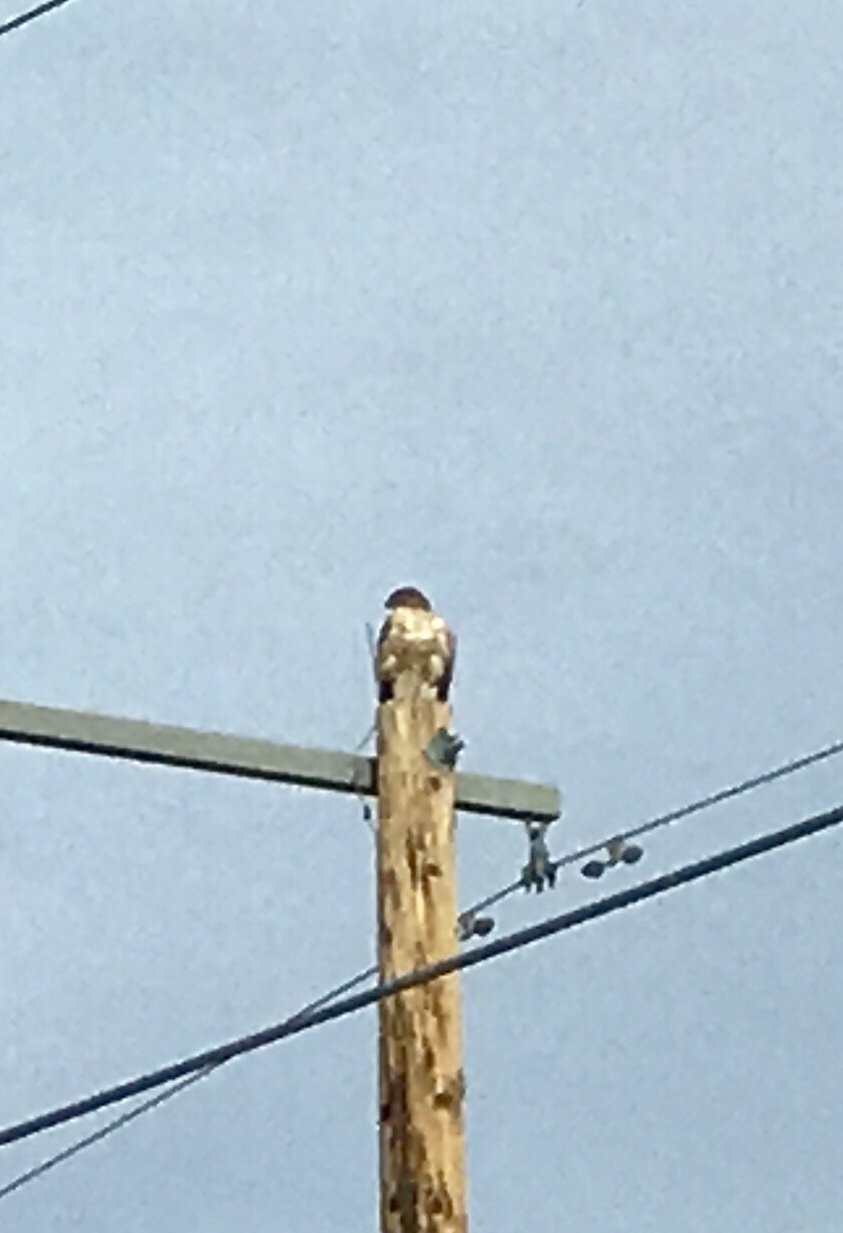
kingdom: Animalia
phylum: Chordata
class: Aves
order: Accipitriformes
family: Accipitridae
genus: Buteo
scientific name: Buteo jamaicensis
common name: Red-tailed hawk
